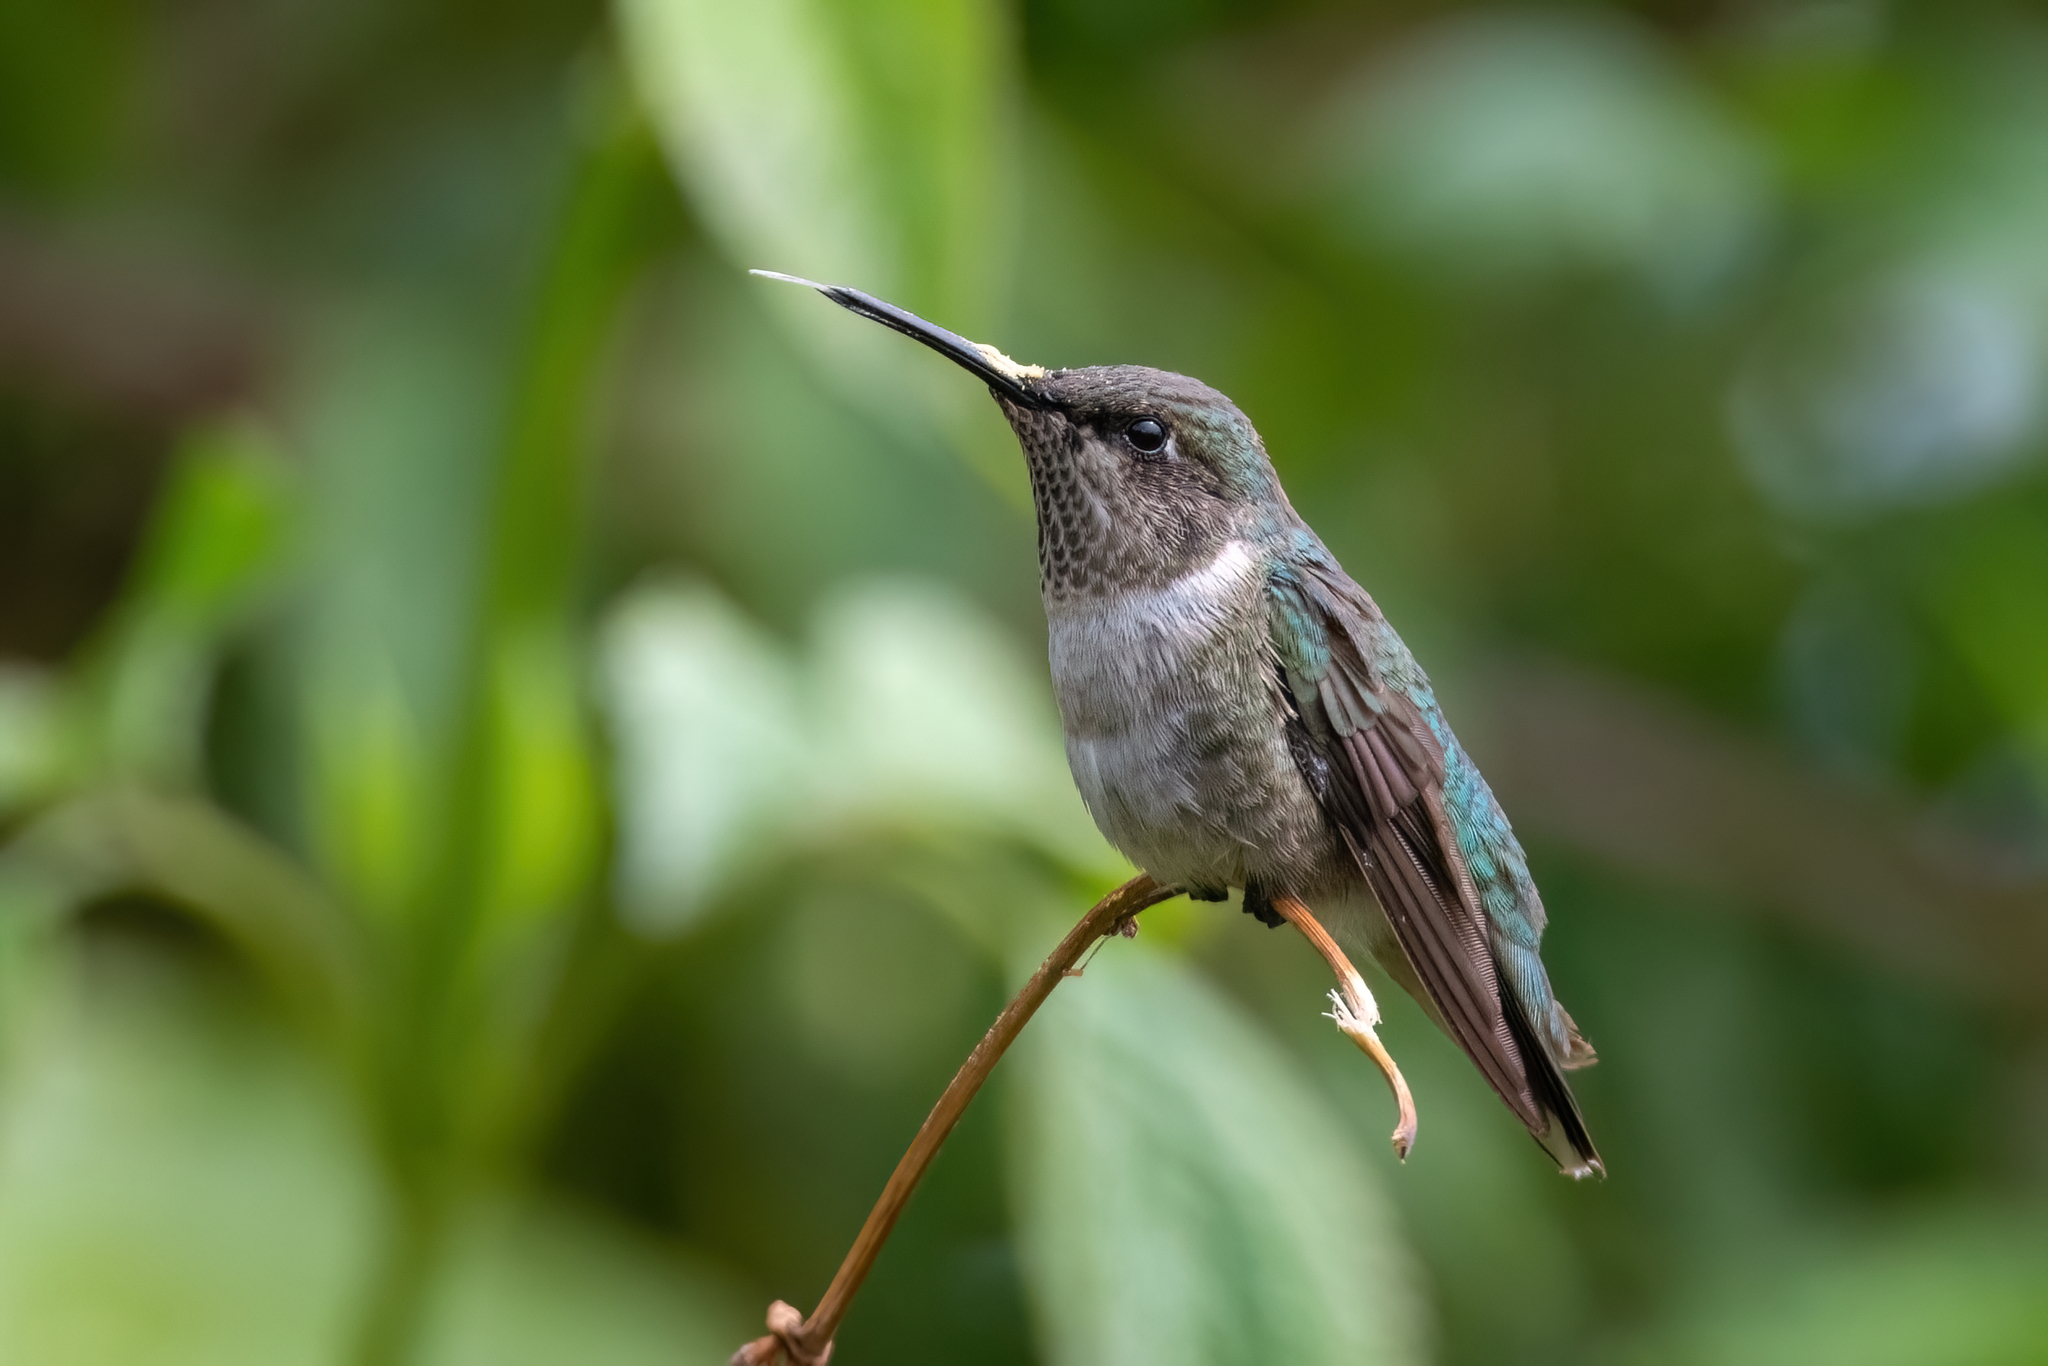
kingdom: Animalia
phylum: Chordata
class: Aves
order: Apodiformes
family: Trochilidae
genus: Archilochus
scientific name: Archilochus colubris
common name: Ruby-throated hummingbird
